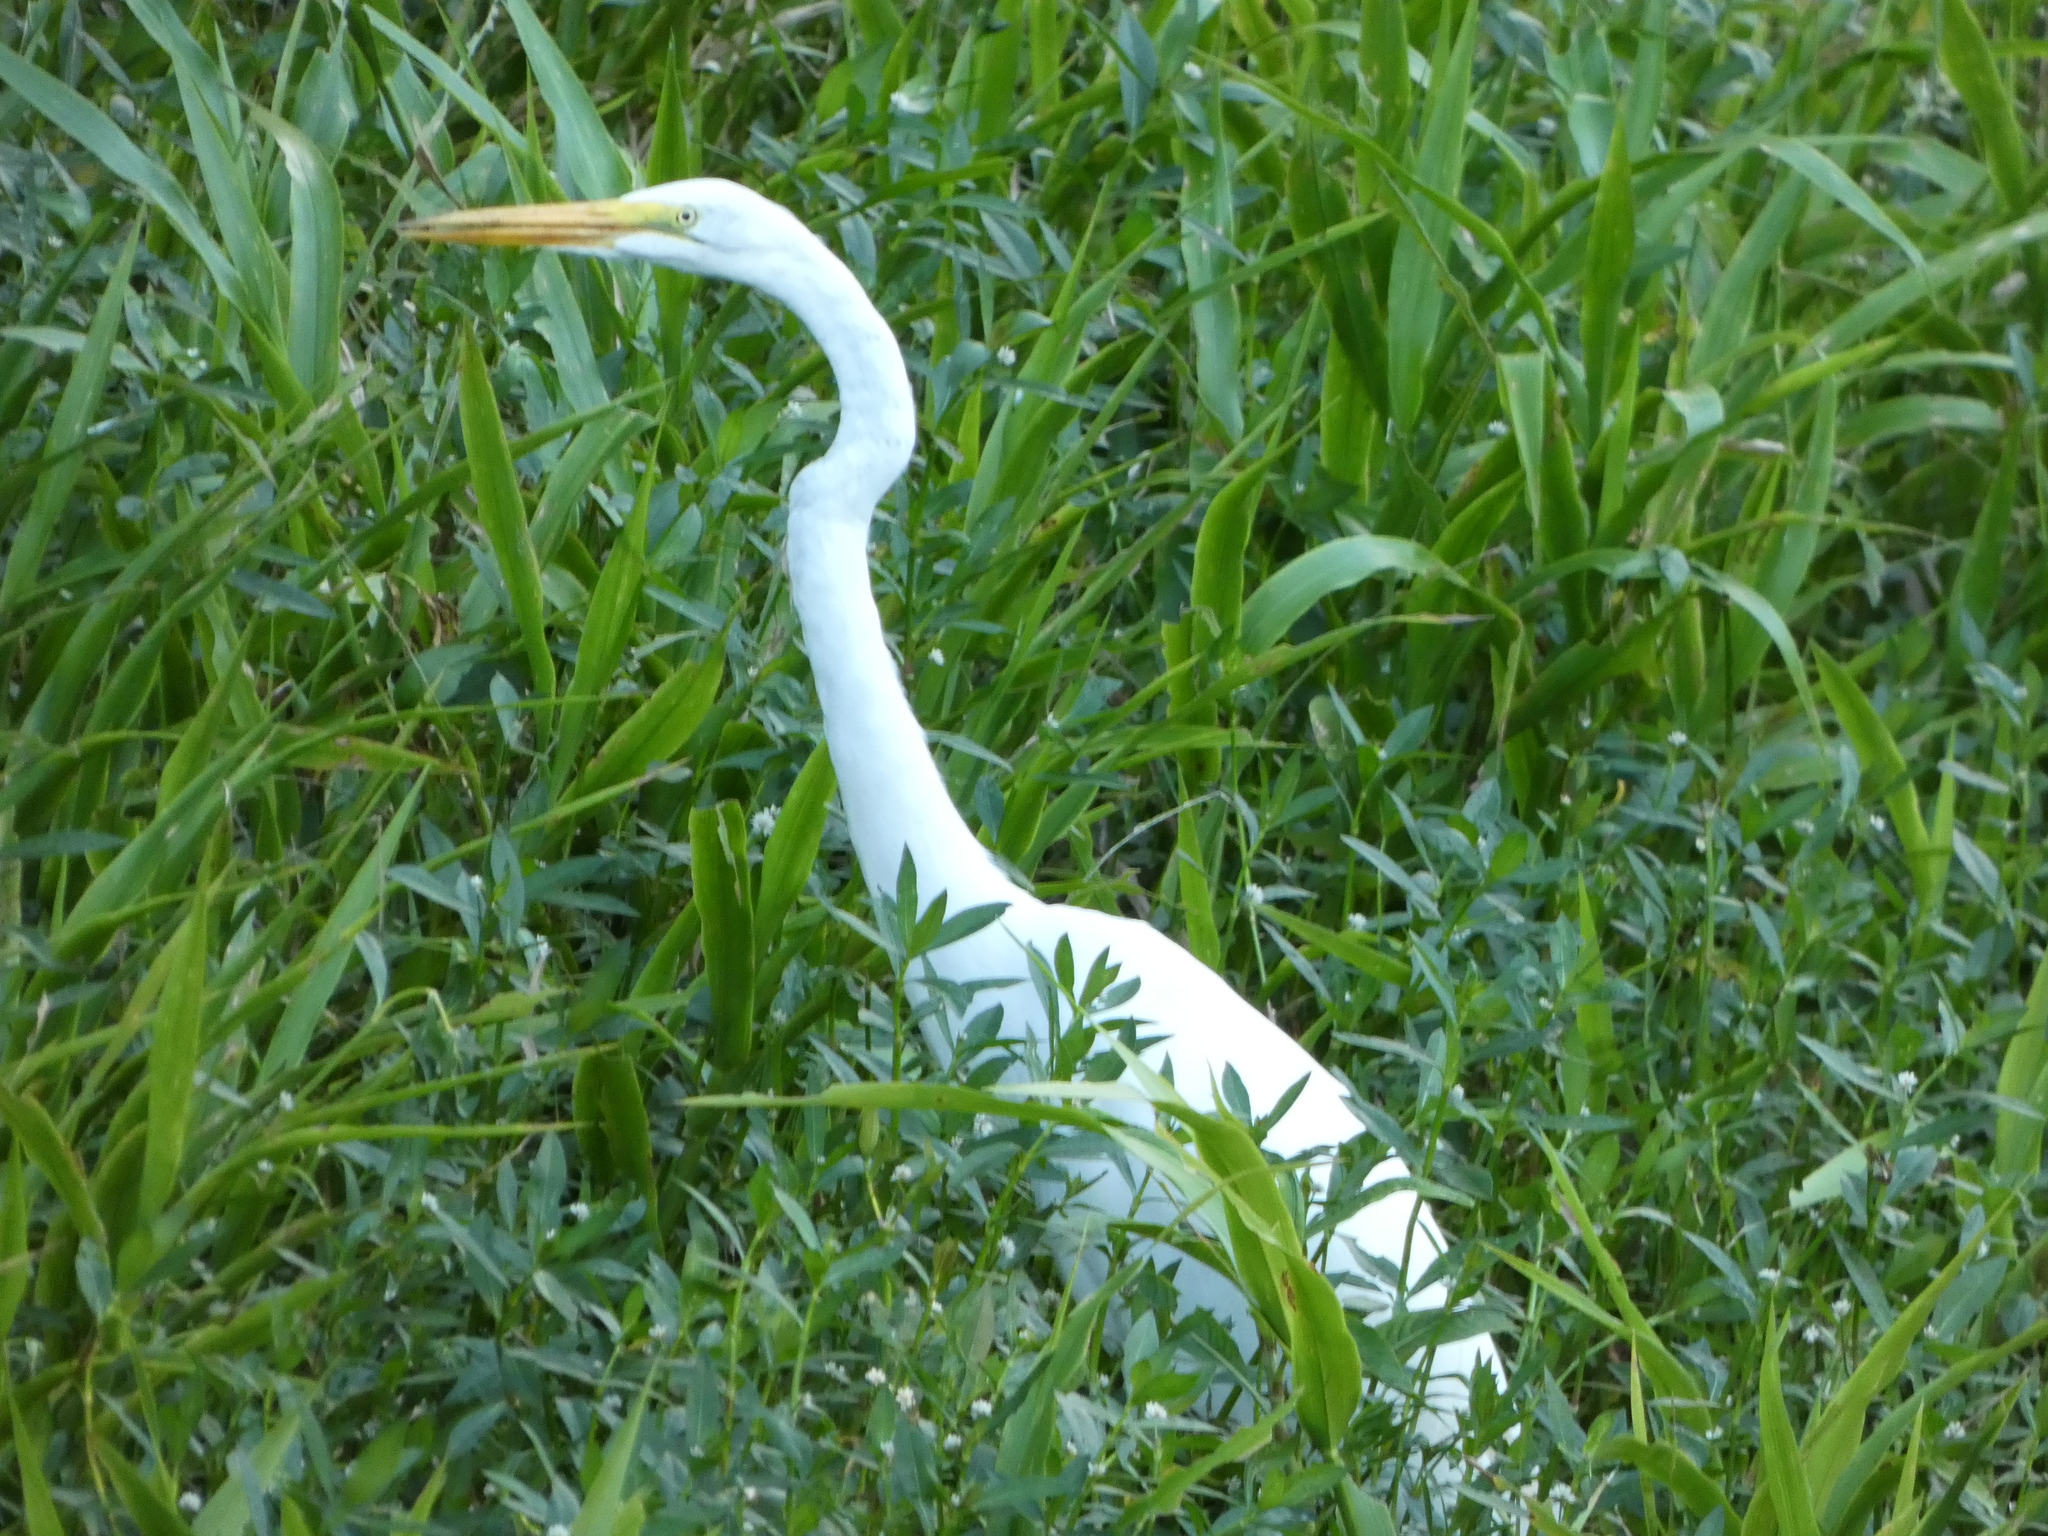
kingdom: Animalia
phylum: Chordata
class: Aves
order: Pelecaniformes
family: Ardeidae
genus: Ardea
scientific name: Ardea alba
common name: Great egret
